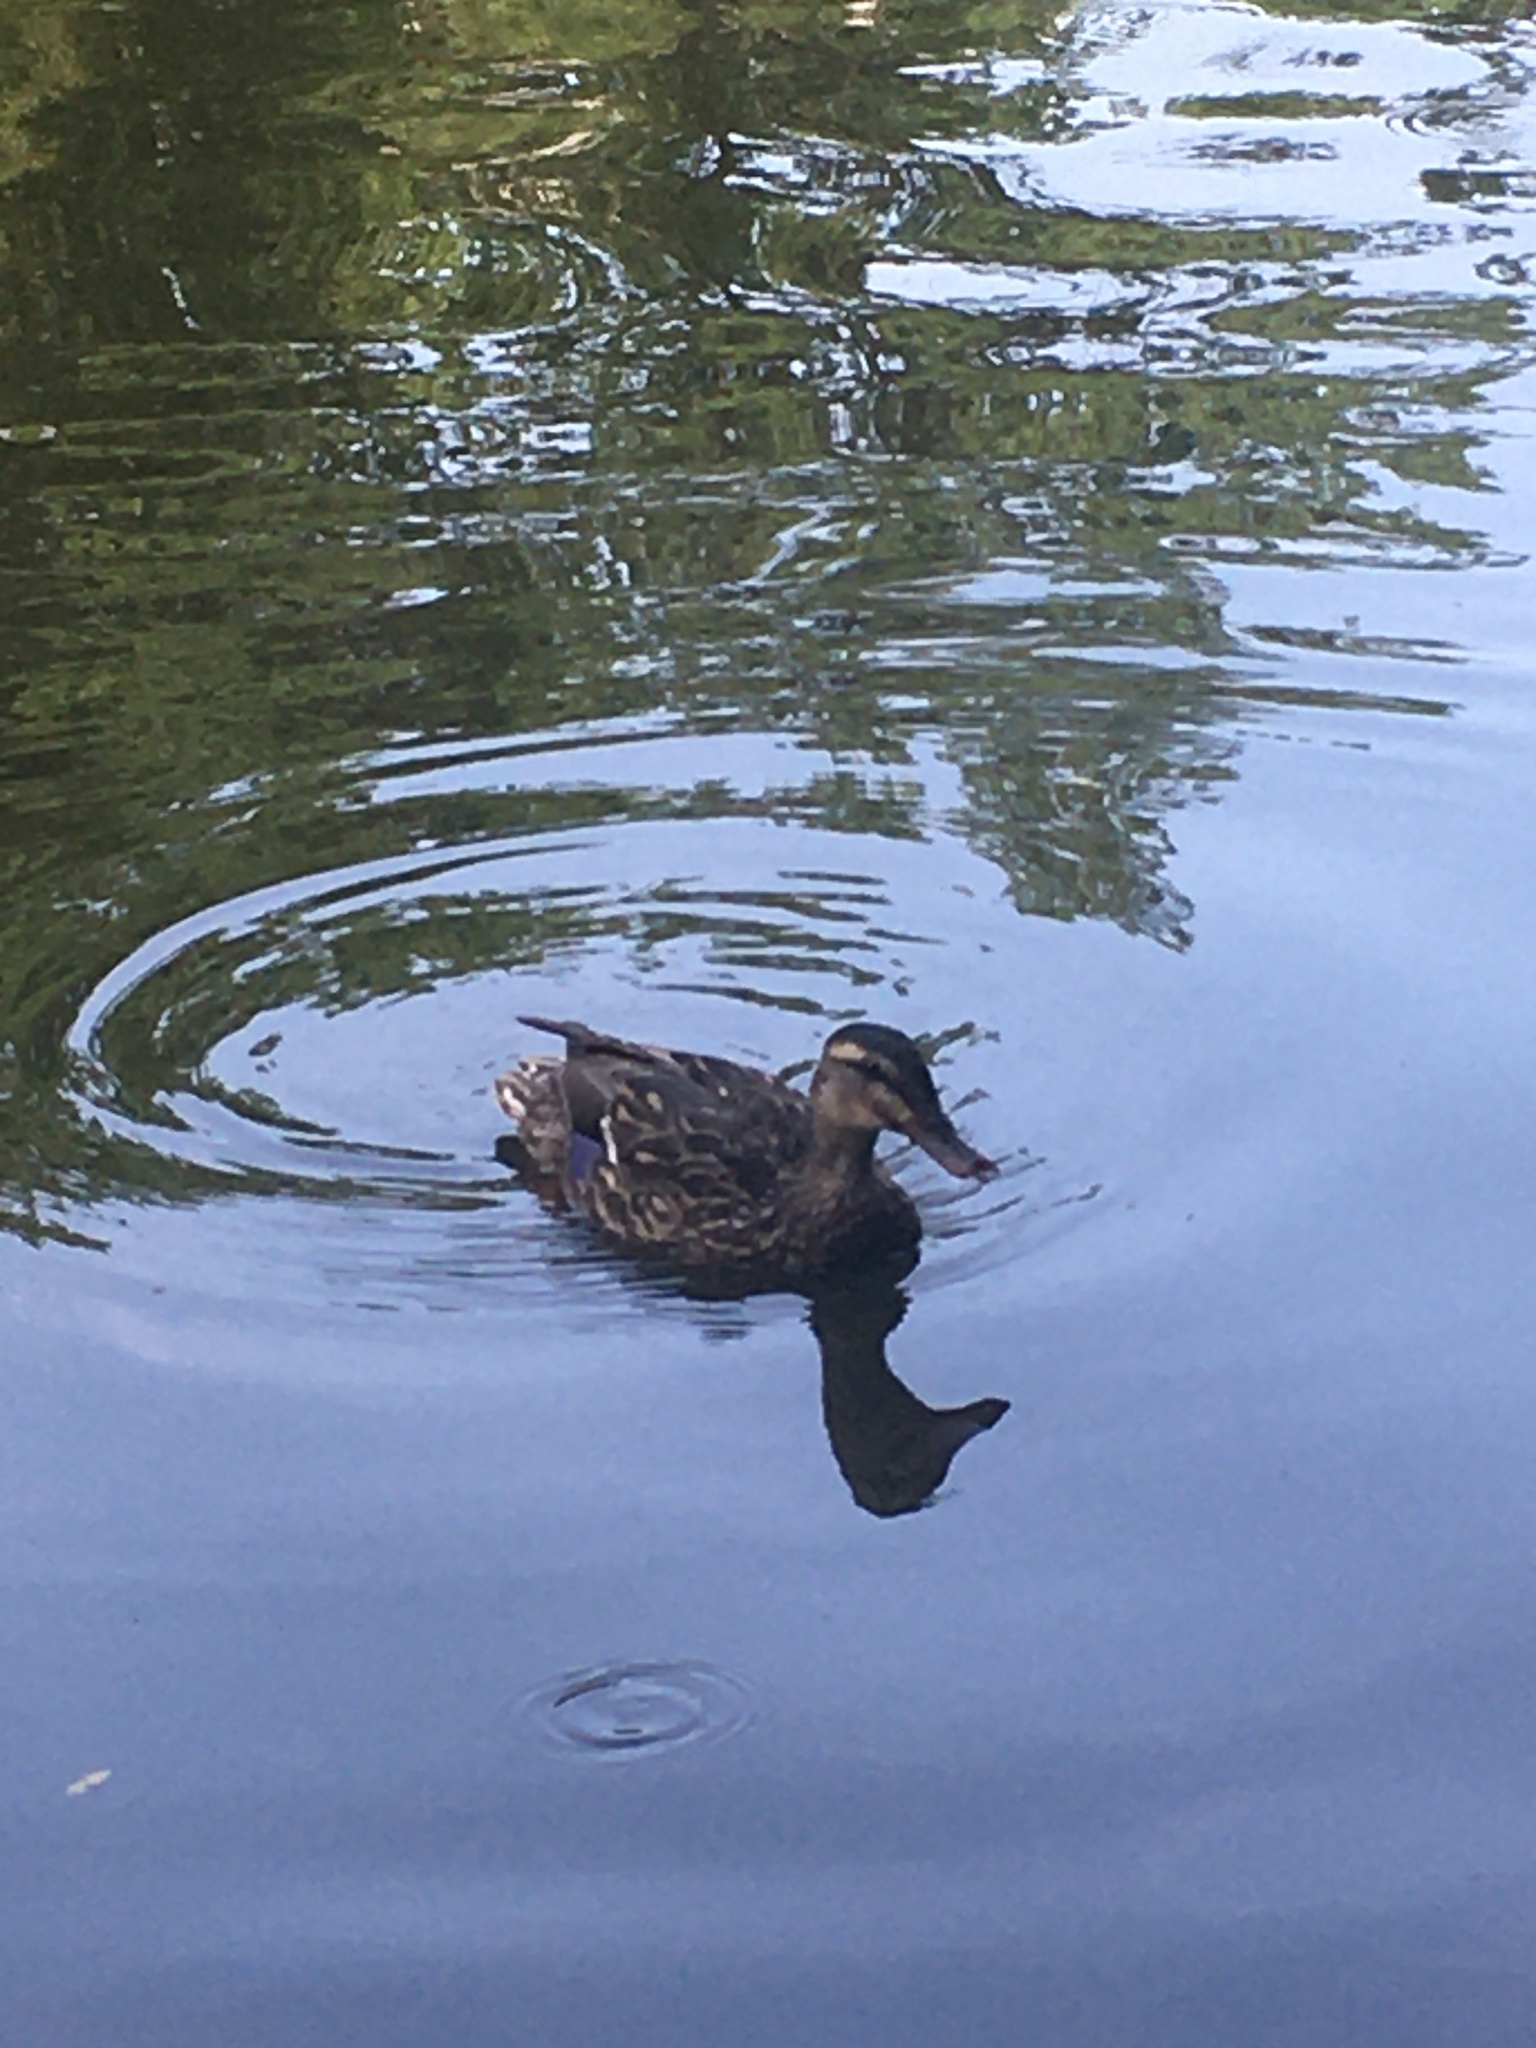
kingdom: Animalia
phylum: Chordata
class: Aves
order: Anseriformes
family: Anatidae
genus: Anas
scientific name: Anas platyrhynchos
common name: Mallard
